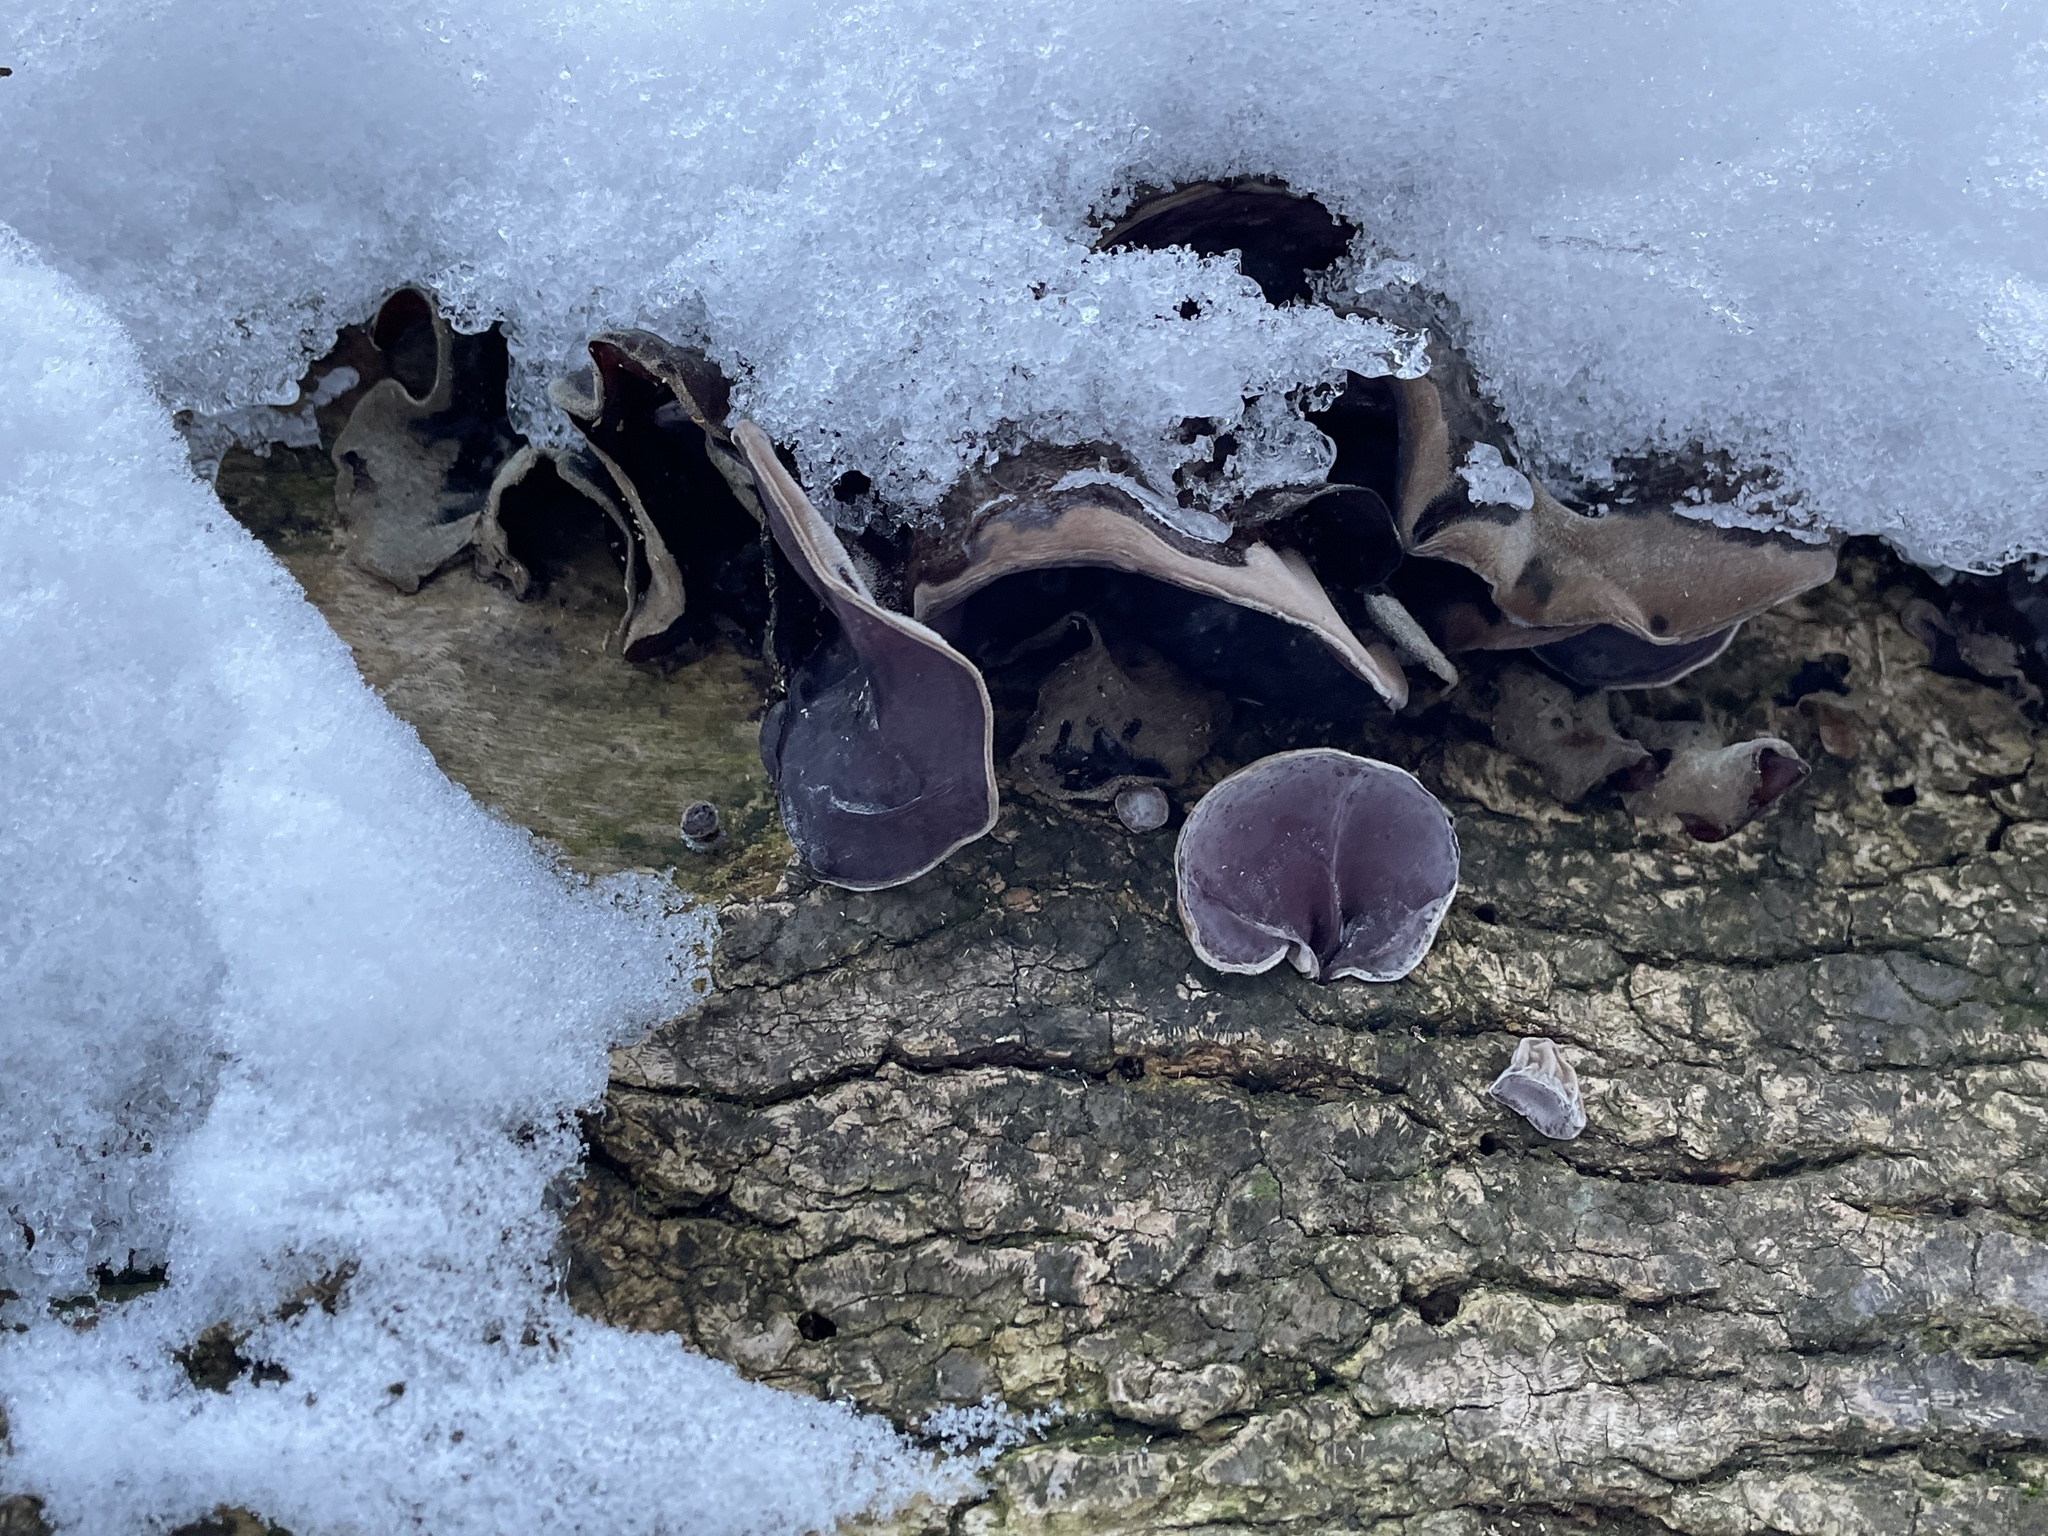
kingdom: Fungi
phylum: Basidiomycota
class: Agaricomycetes
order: Auriculariales
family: Auriculariaceae
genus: Auricularia
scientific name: Auricularia americana
